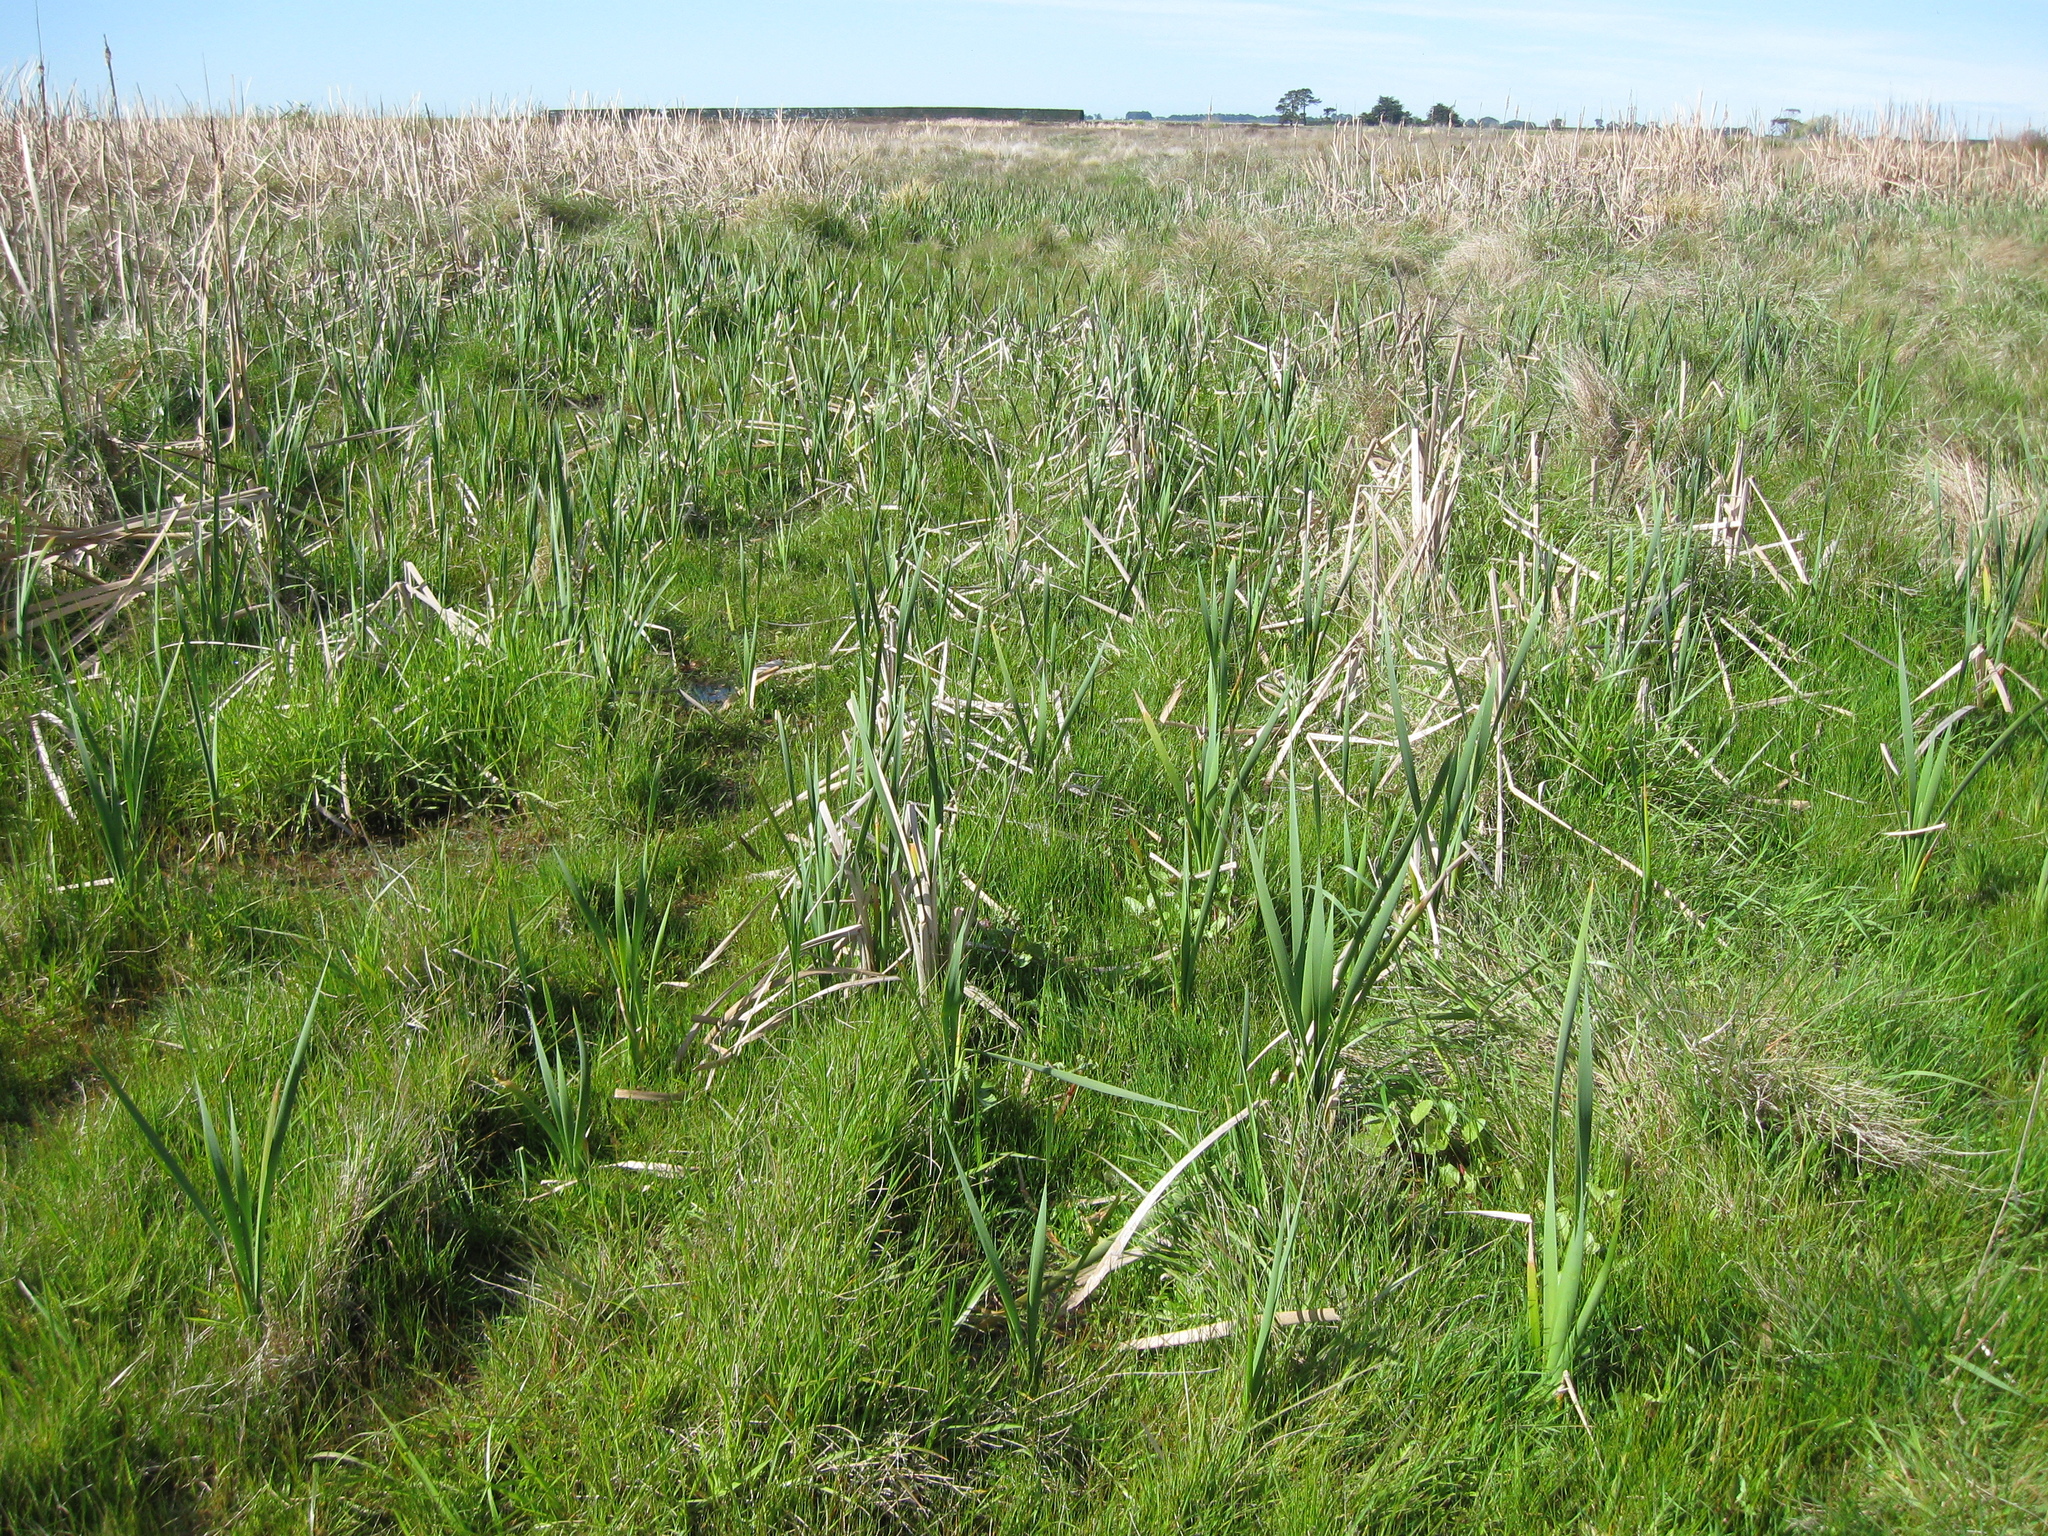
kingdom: Plantae
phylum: Tracheophyta
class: Liliopsida
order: Poales
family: Typhaceae
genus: Typha
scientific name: Typha orientalis
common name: Bullrush
